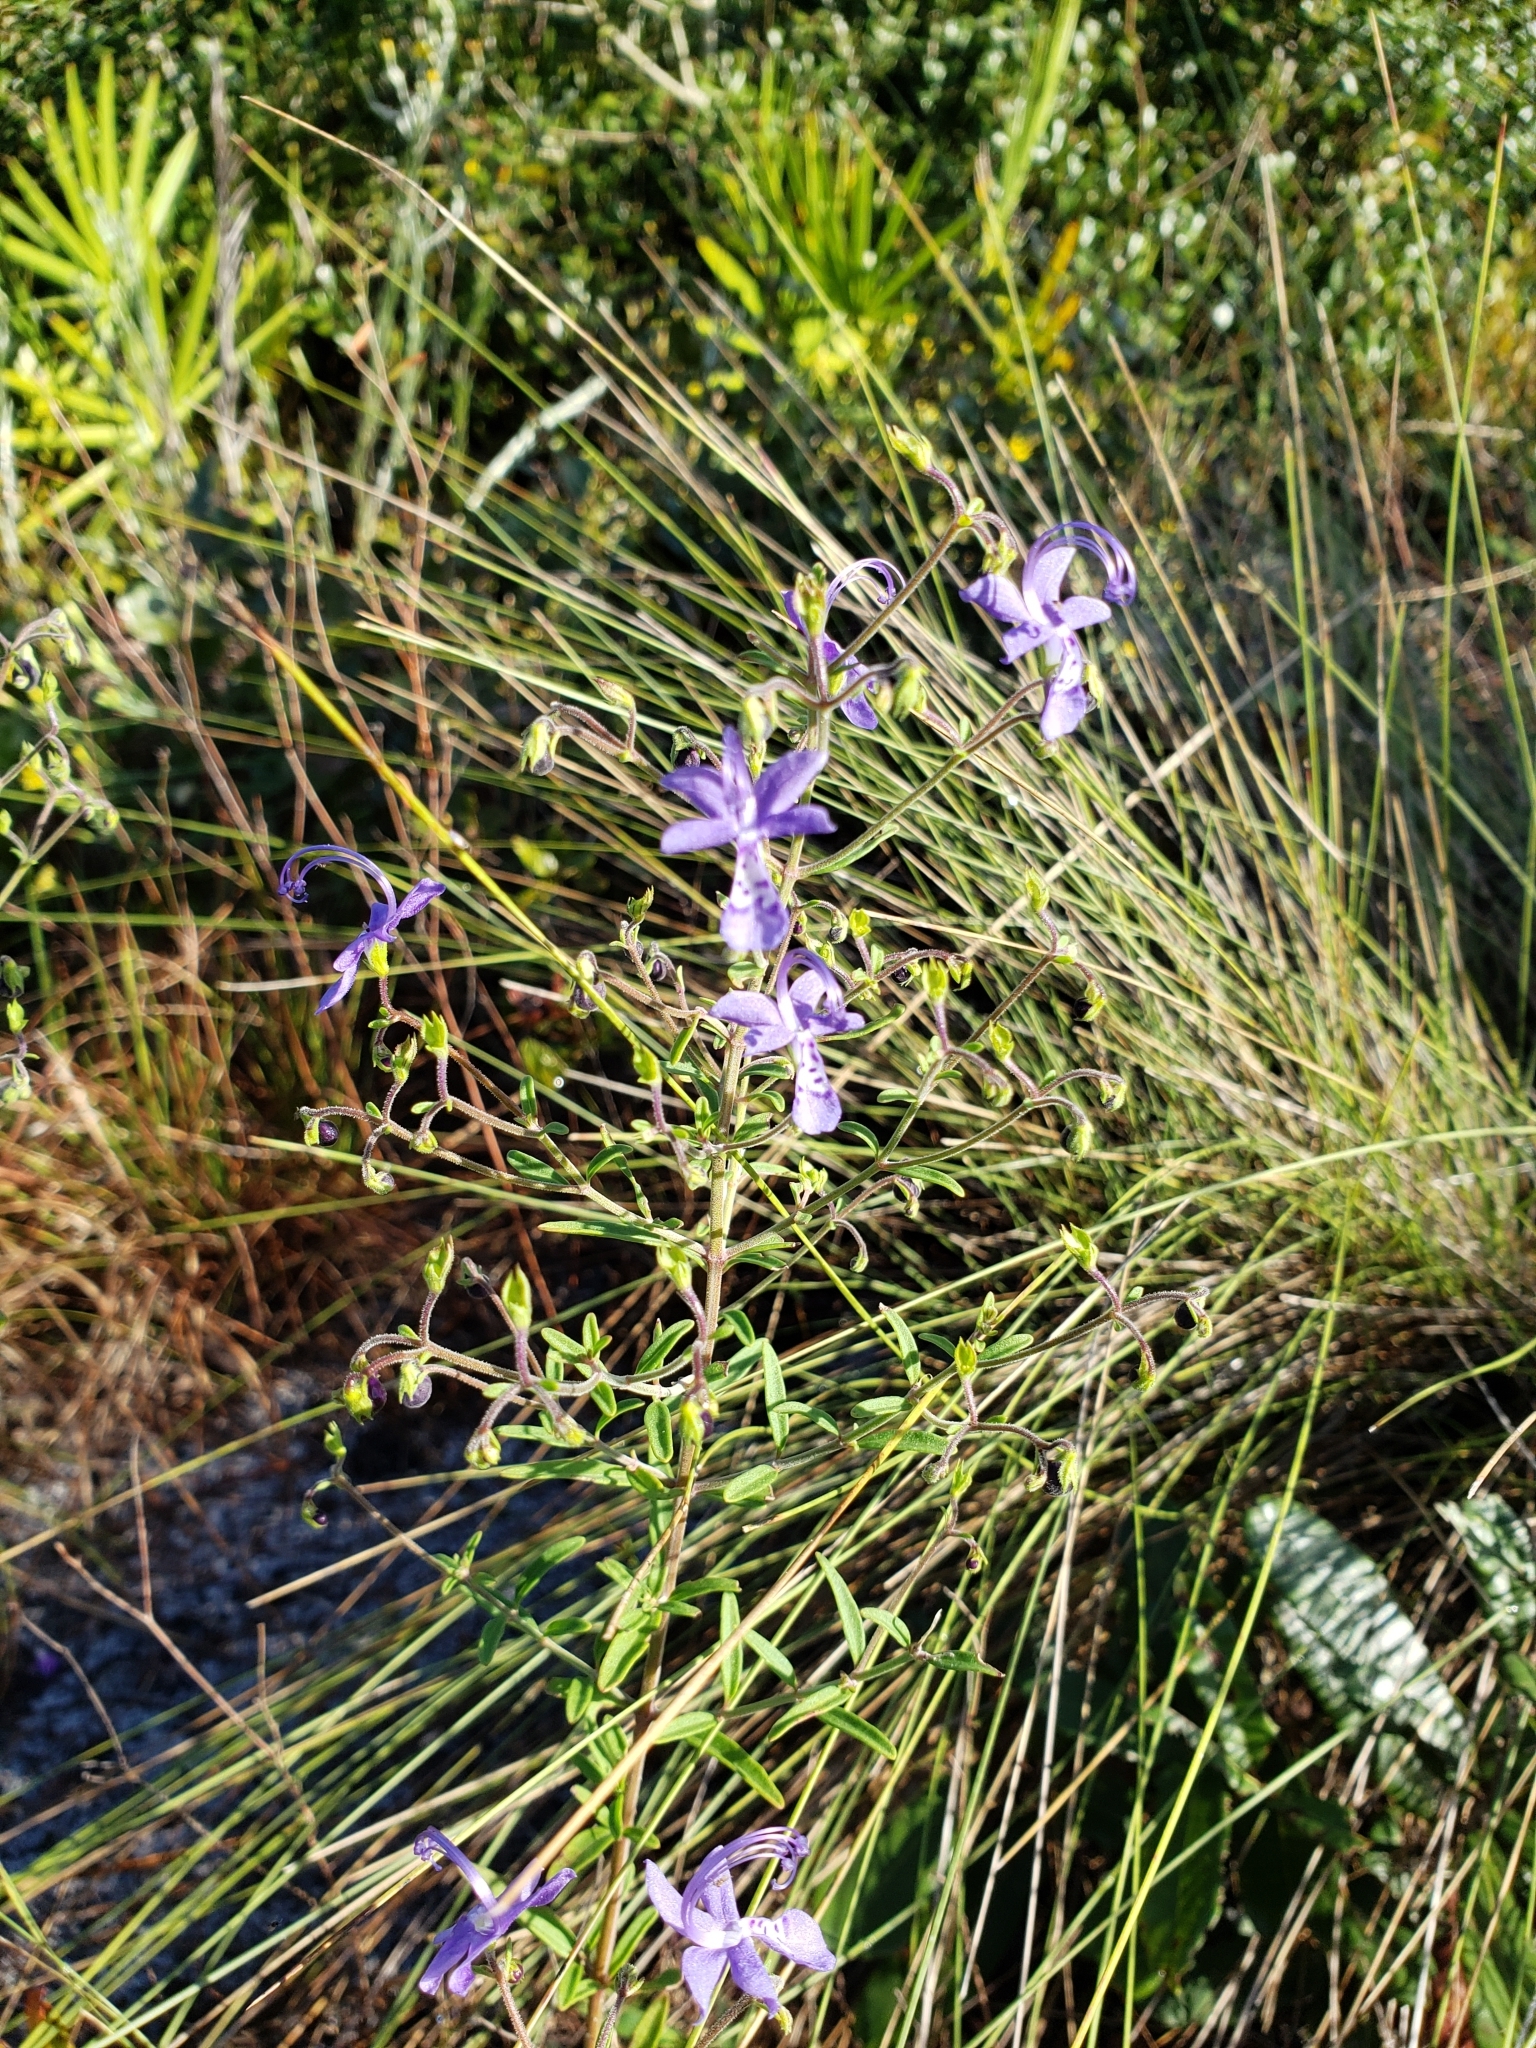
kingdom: Plantae
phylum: Tracheophyta
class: Magnoliopsida
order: Lamiales
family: Lamiaceae
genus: Trichostema
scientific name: Trichostema gracile
